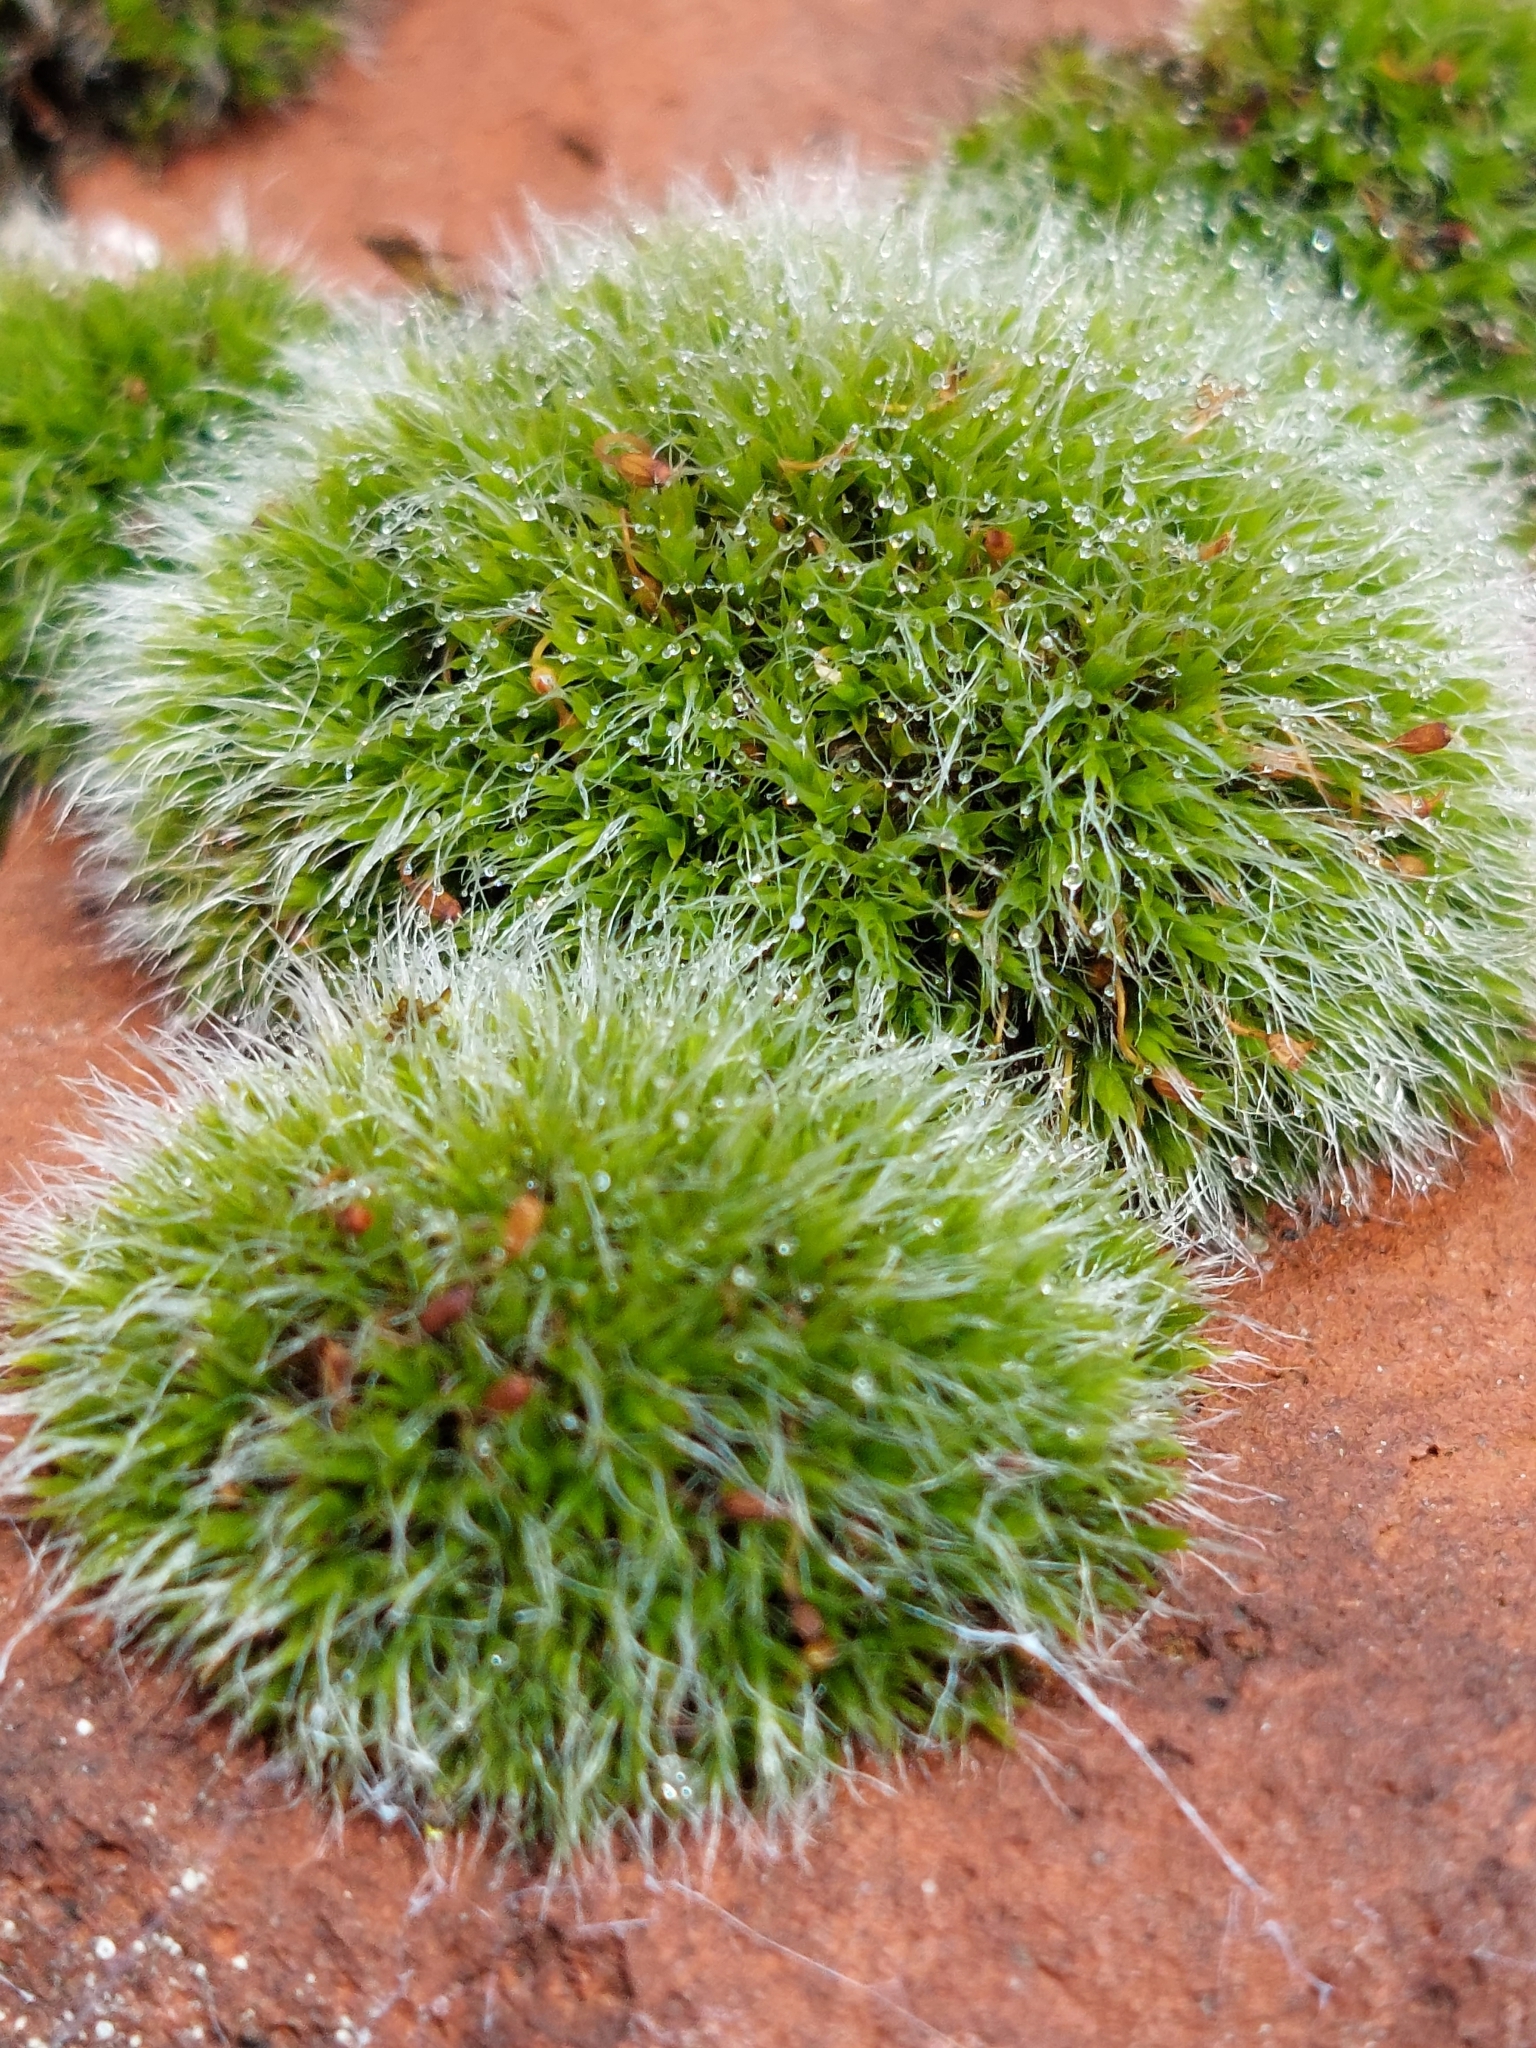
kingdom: Plantae
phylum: Bryophyta
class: Bryopsida
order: Grimmiales
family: Grimmiaceae
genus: Grimmia
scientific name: Grimmia pulvinata
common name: Grey-cushioned grimmia
